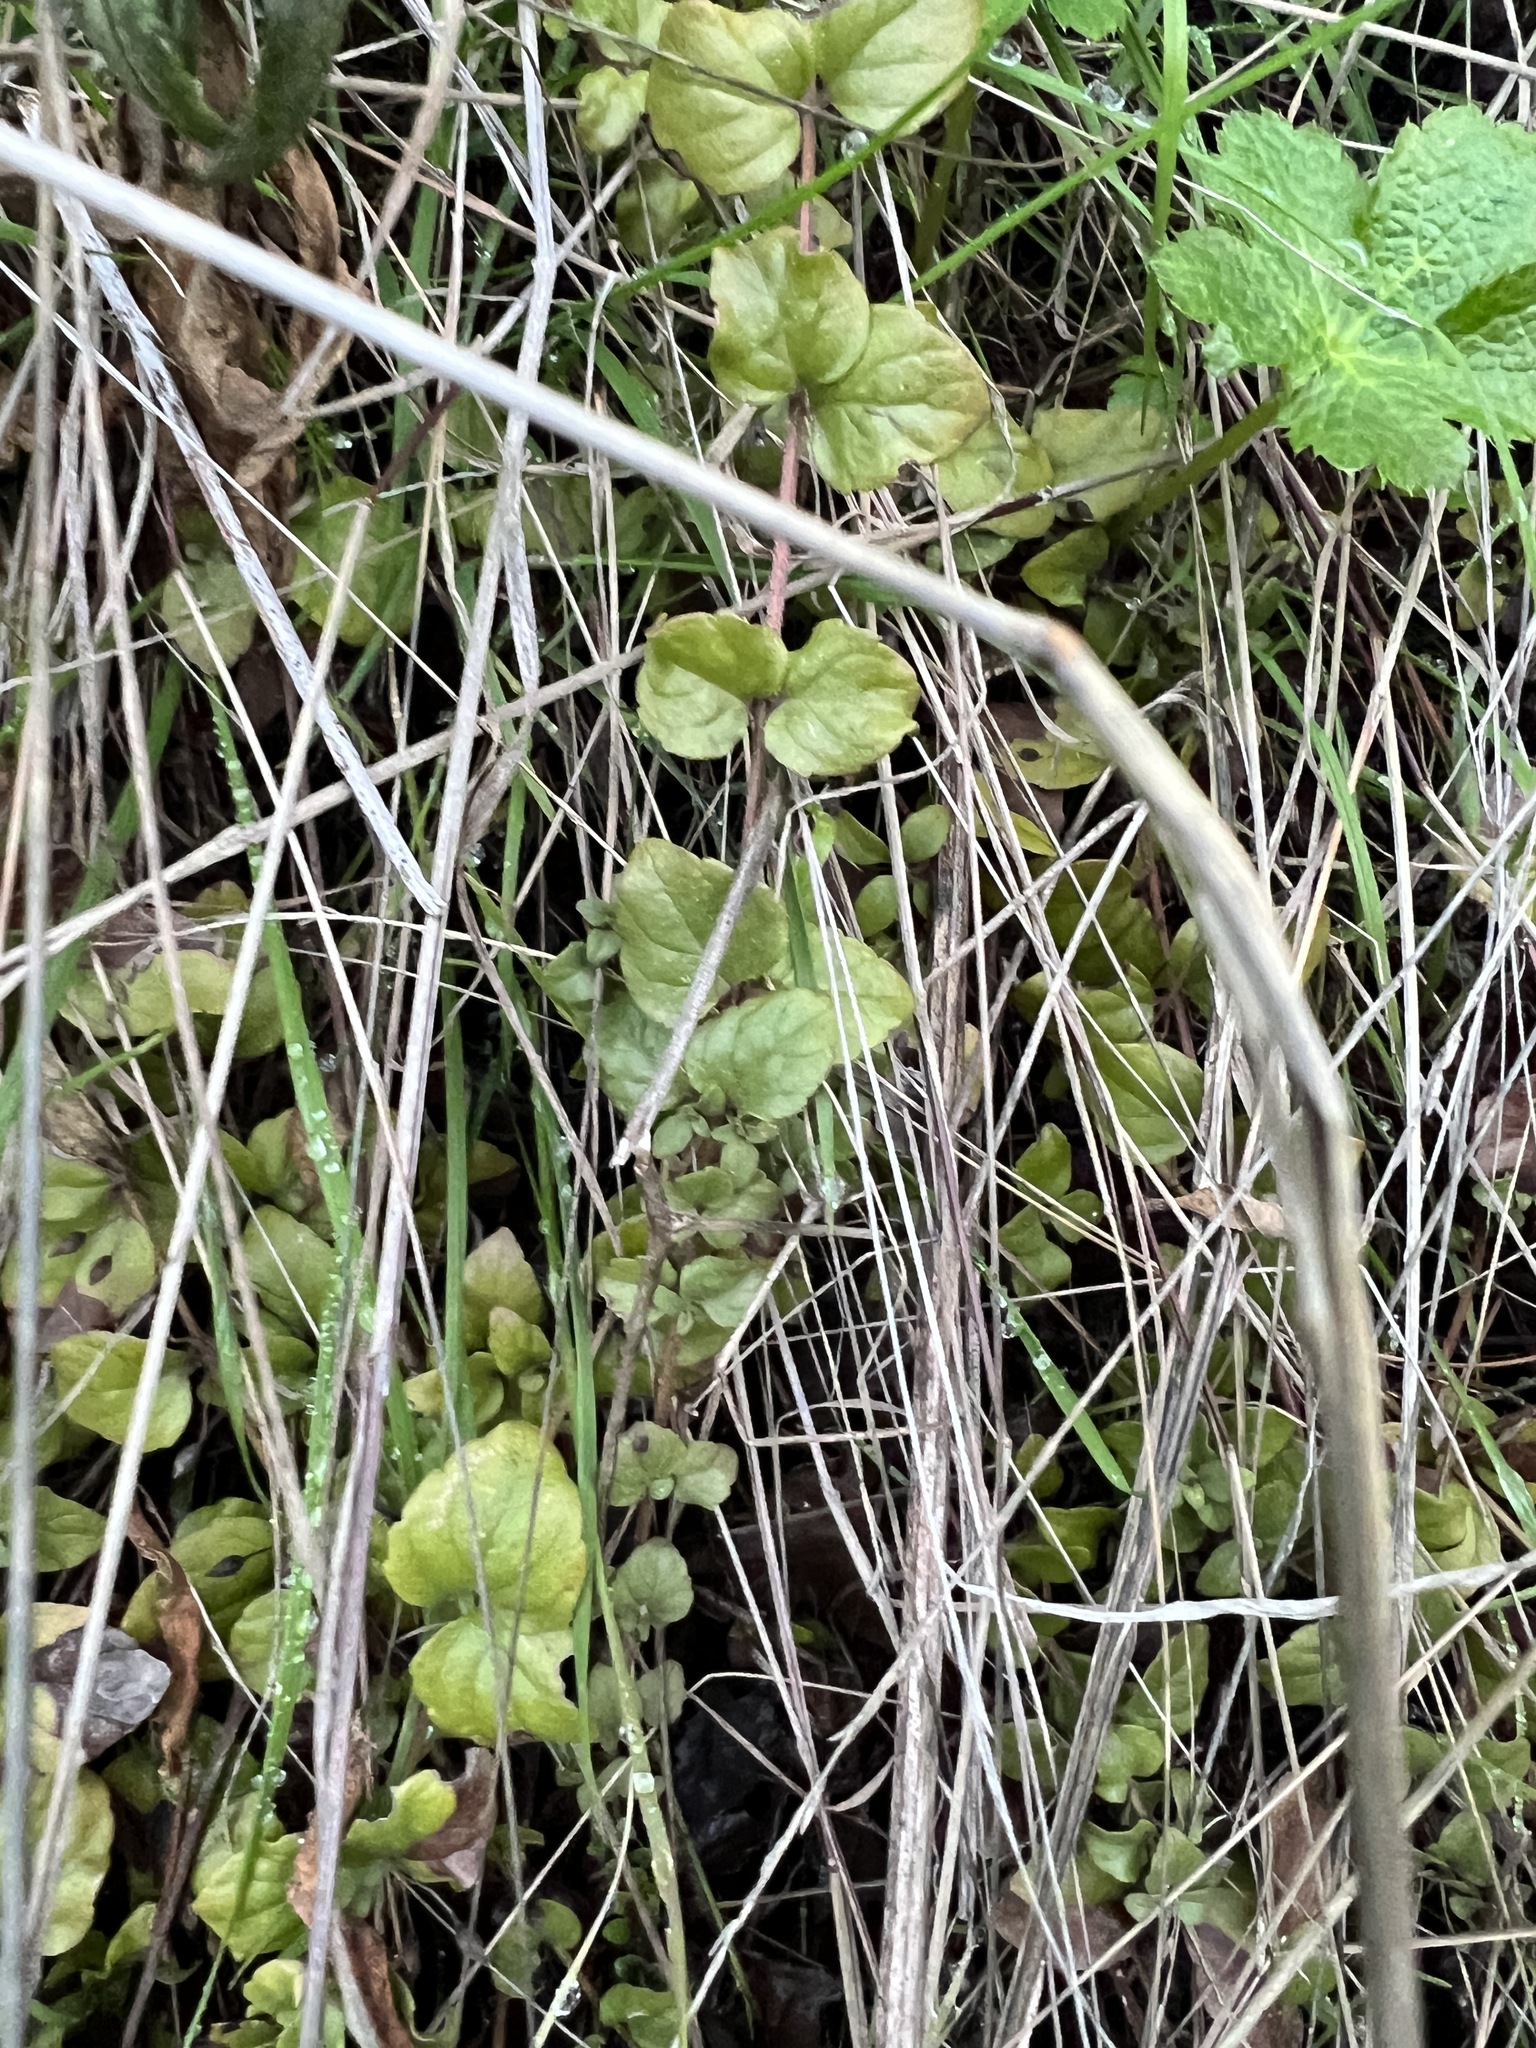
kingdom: Plantae
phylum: Tracheophyta
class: Magnoliopsida
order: Lamiales
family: Lamiaceae
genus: Micromeria
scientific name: Micromeria douglasii
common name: Yerba buena
